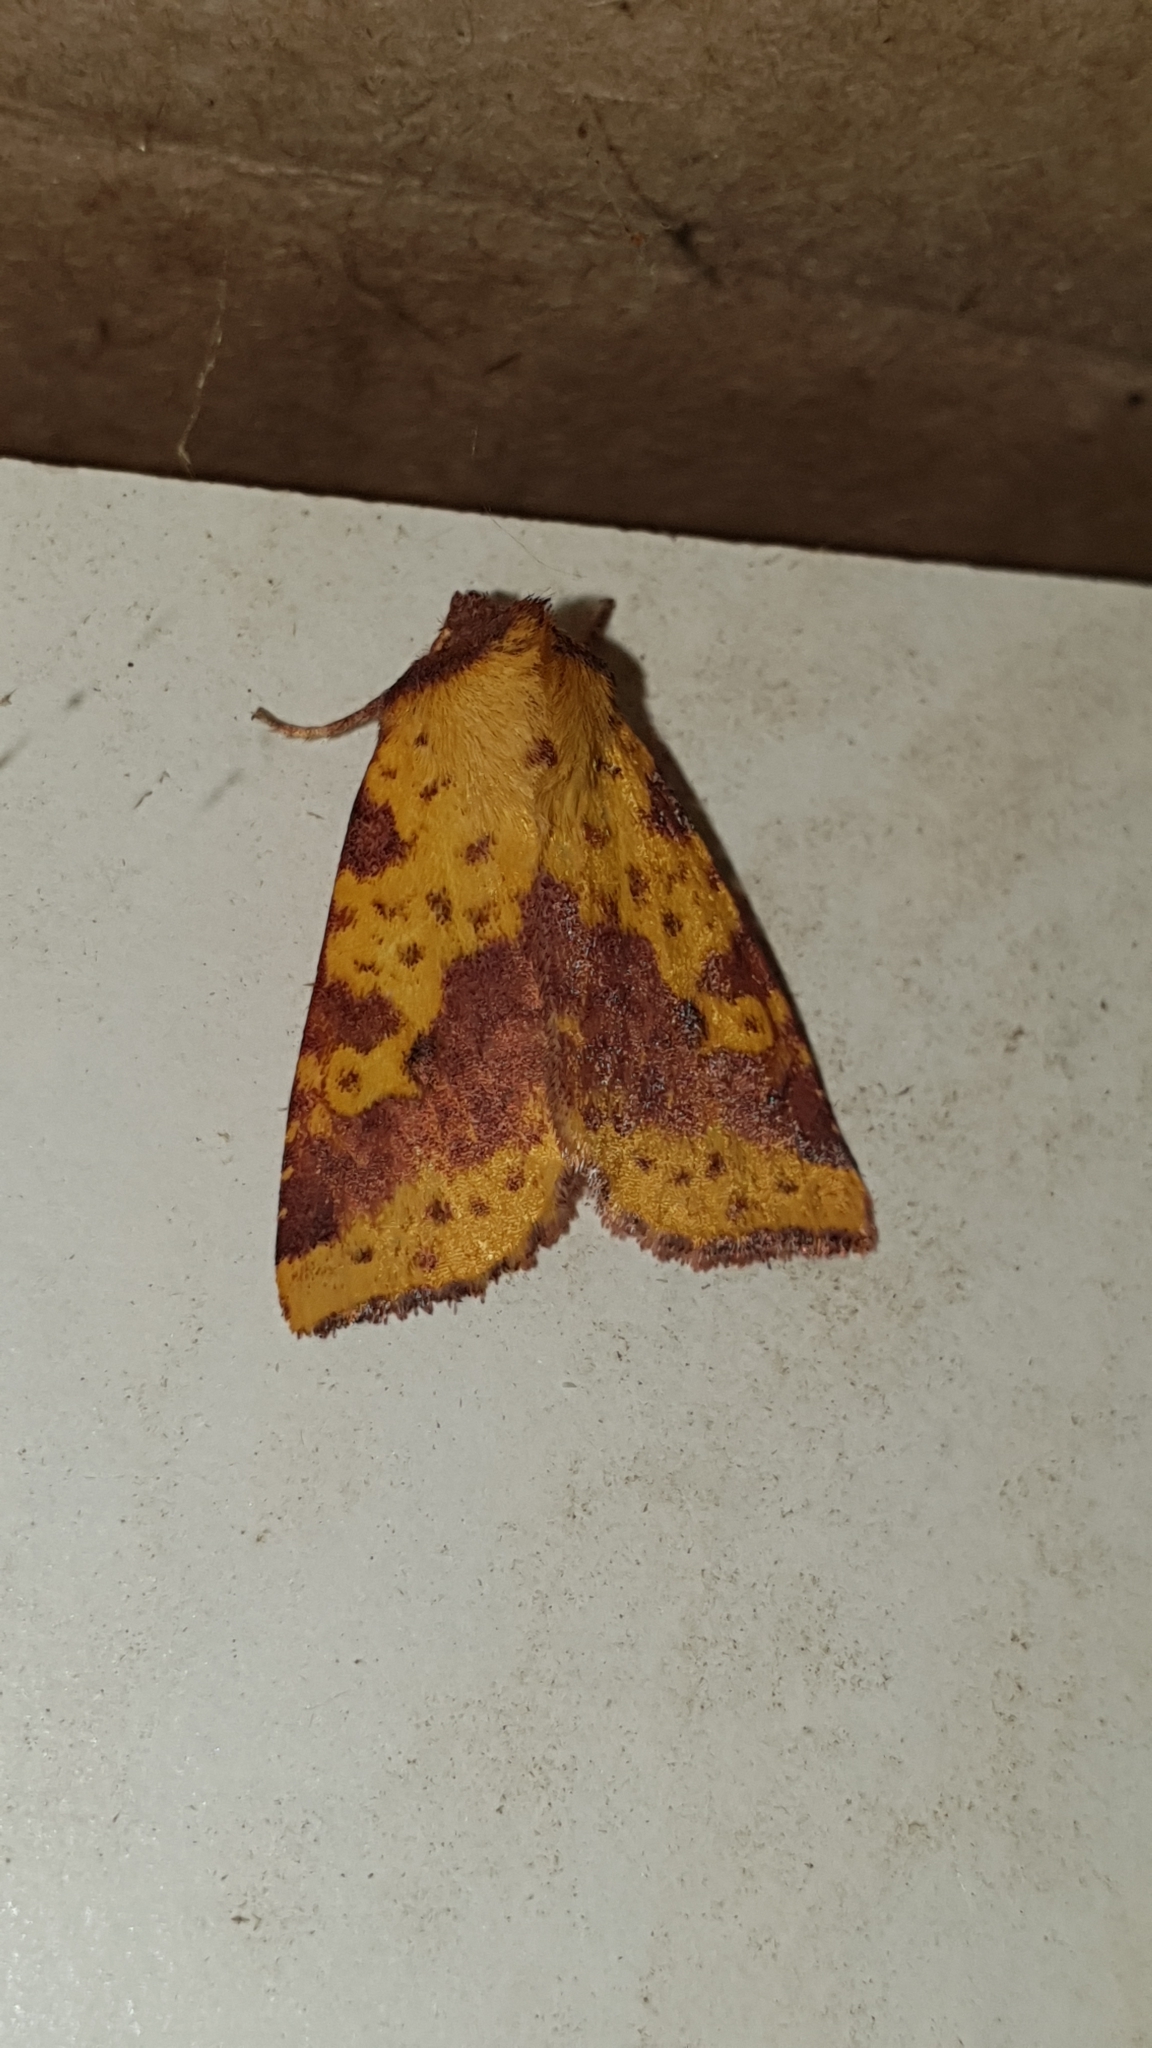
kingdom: Animalia
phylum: Arthropoda
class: Insecta
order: Lepidoptera
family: Noctuidae
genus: Xanthia
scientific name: Xanthia togata
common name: Pink-barred sallow
